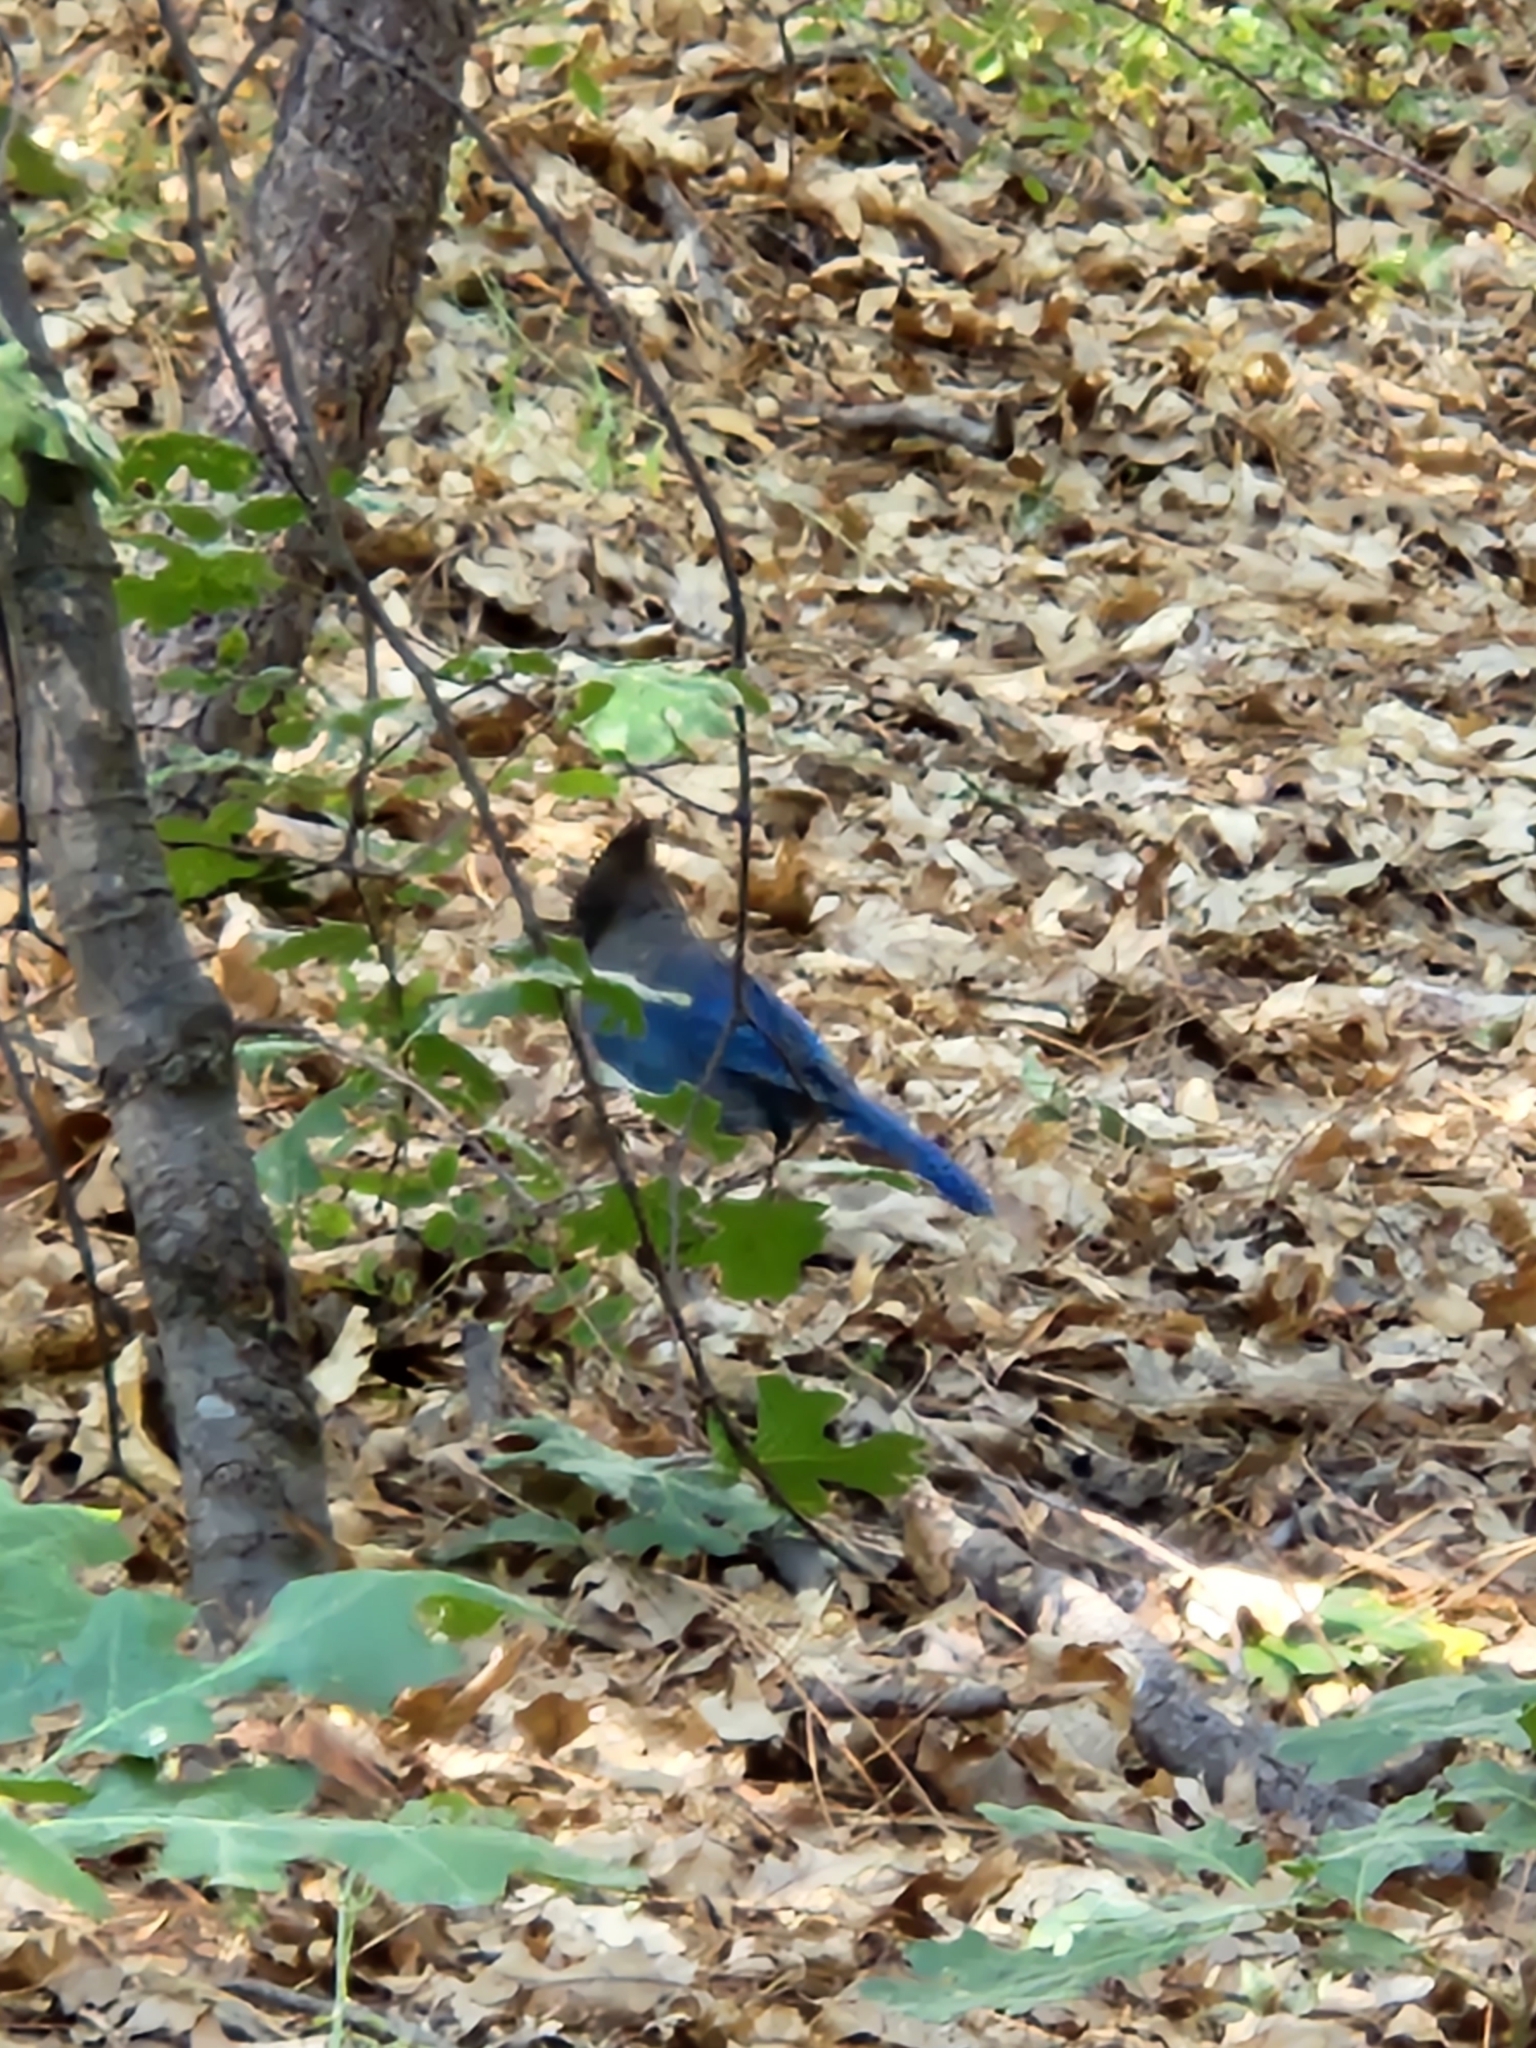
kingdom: Animalia
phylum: Chordata
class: Aves
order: Passeriformes
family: Corvidae
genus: Cyanocitta
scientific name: Cyanocitta stelleri
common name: Steller's jay
